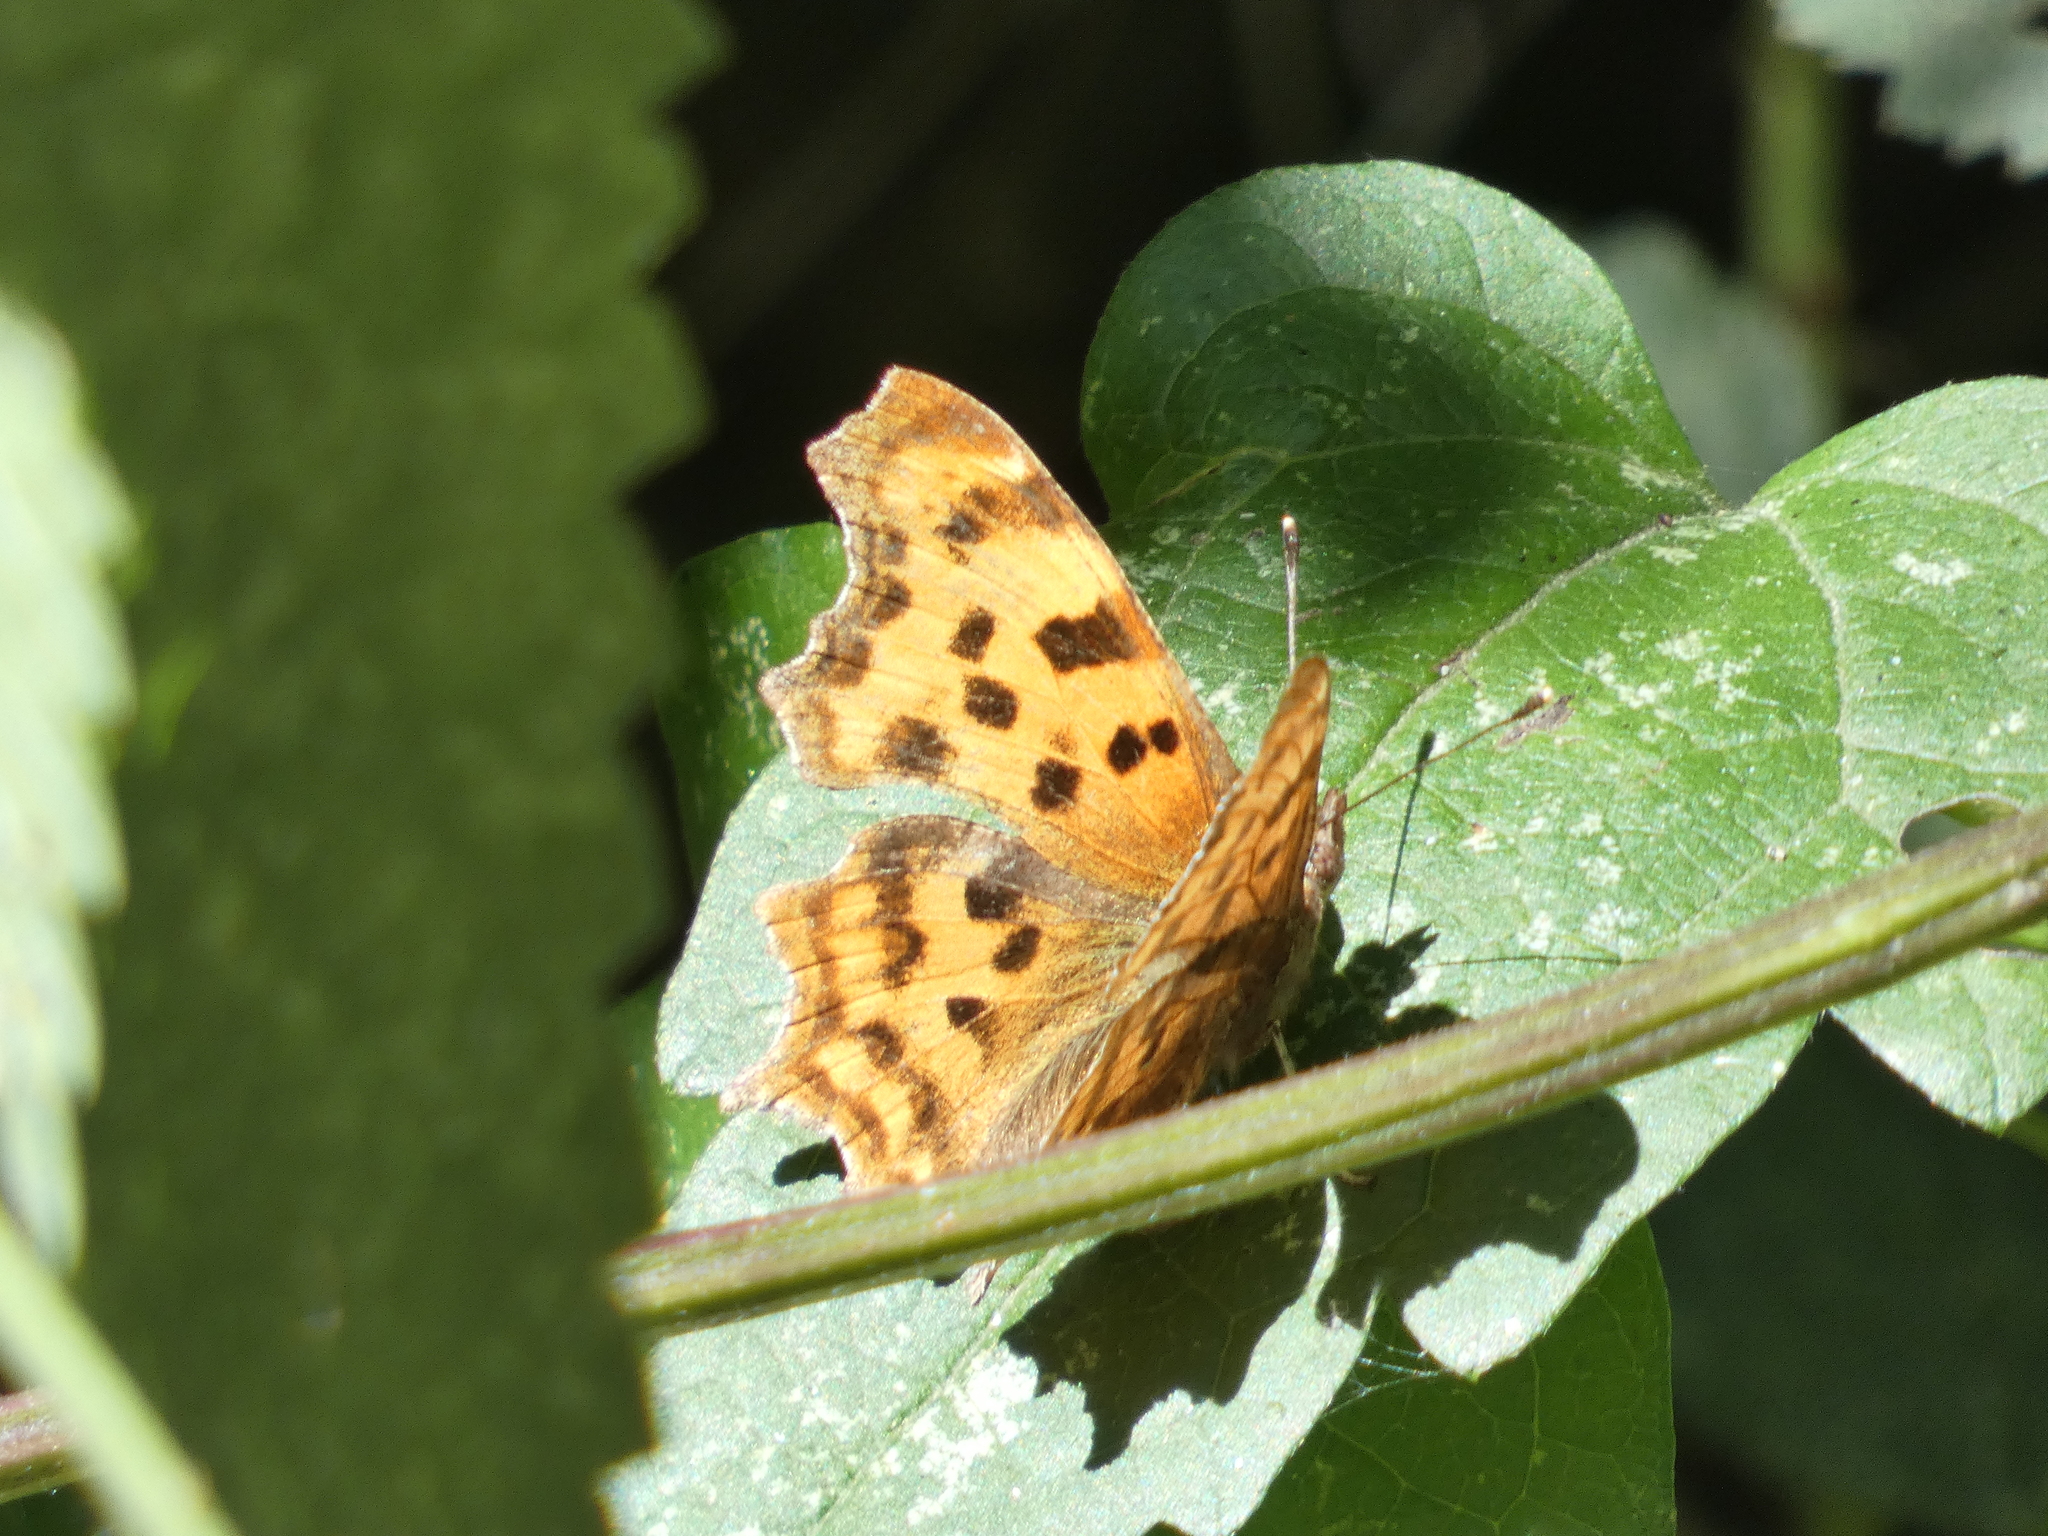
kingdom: Animalia
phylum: Arthropoda
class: Insecta
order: Lepidoptera
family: Nymphalidae
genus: Polygonia
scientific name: Polygonia c-album
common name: Comma
